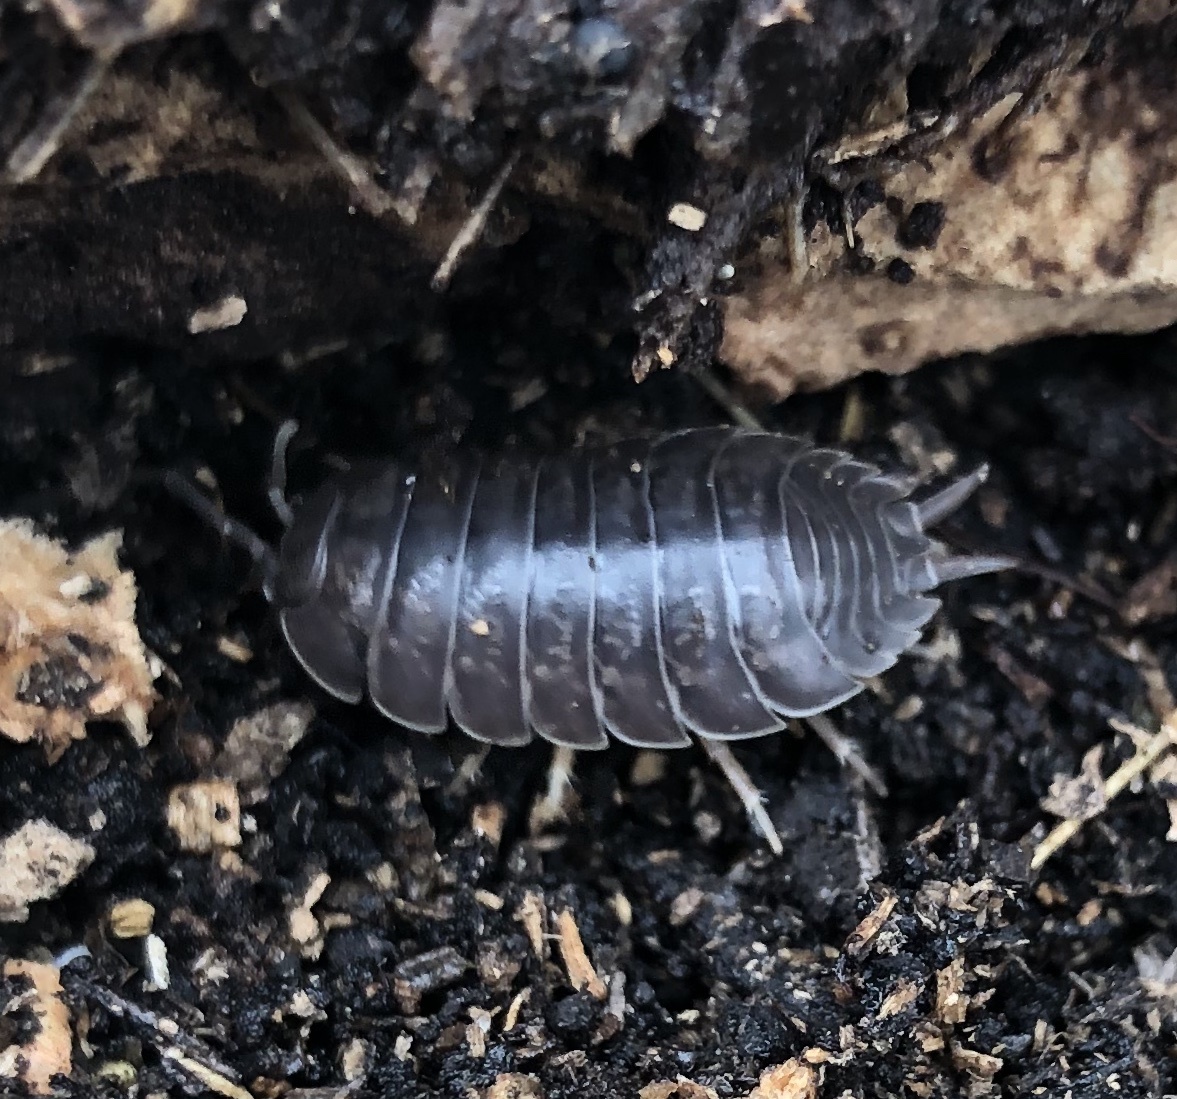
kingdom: Animalia
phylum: Arthropoda
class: Malacostraca
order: Isopoda
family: Porcellionidae
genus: Porcellio
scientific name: Porcellio laevis
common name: Swift woodlouse
